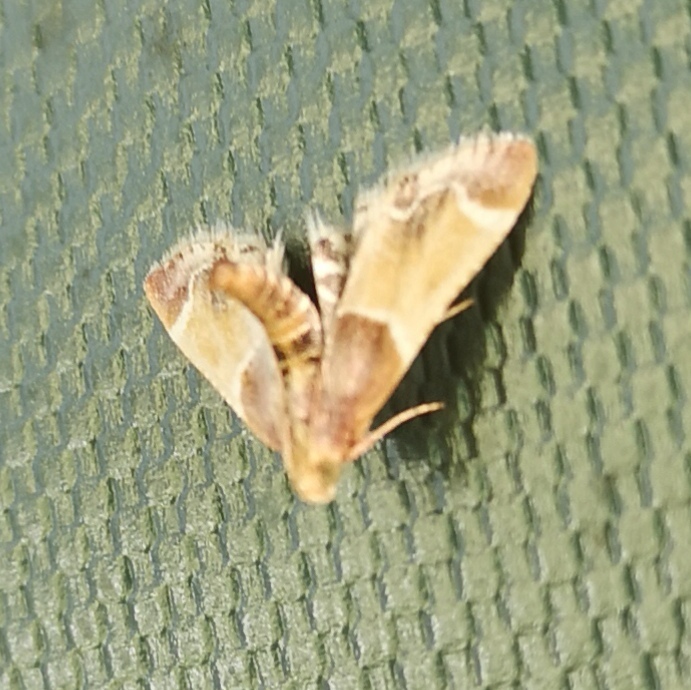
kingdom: Animalia
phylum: Arthropoda
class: Insecta
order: Lepidoptera
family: Pyralidae
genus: Pyralis
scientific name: Pyralis farinalis
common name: Meal moth
